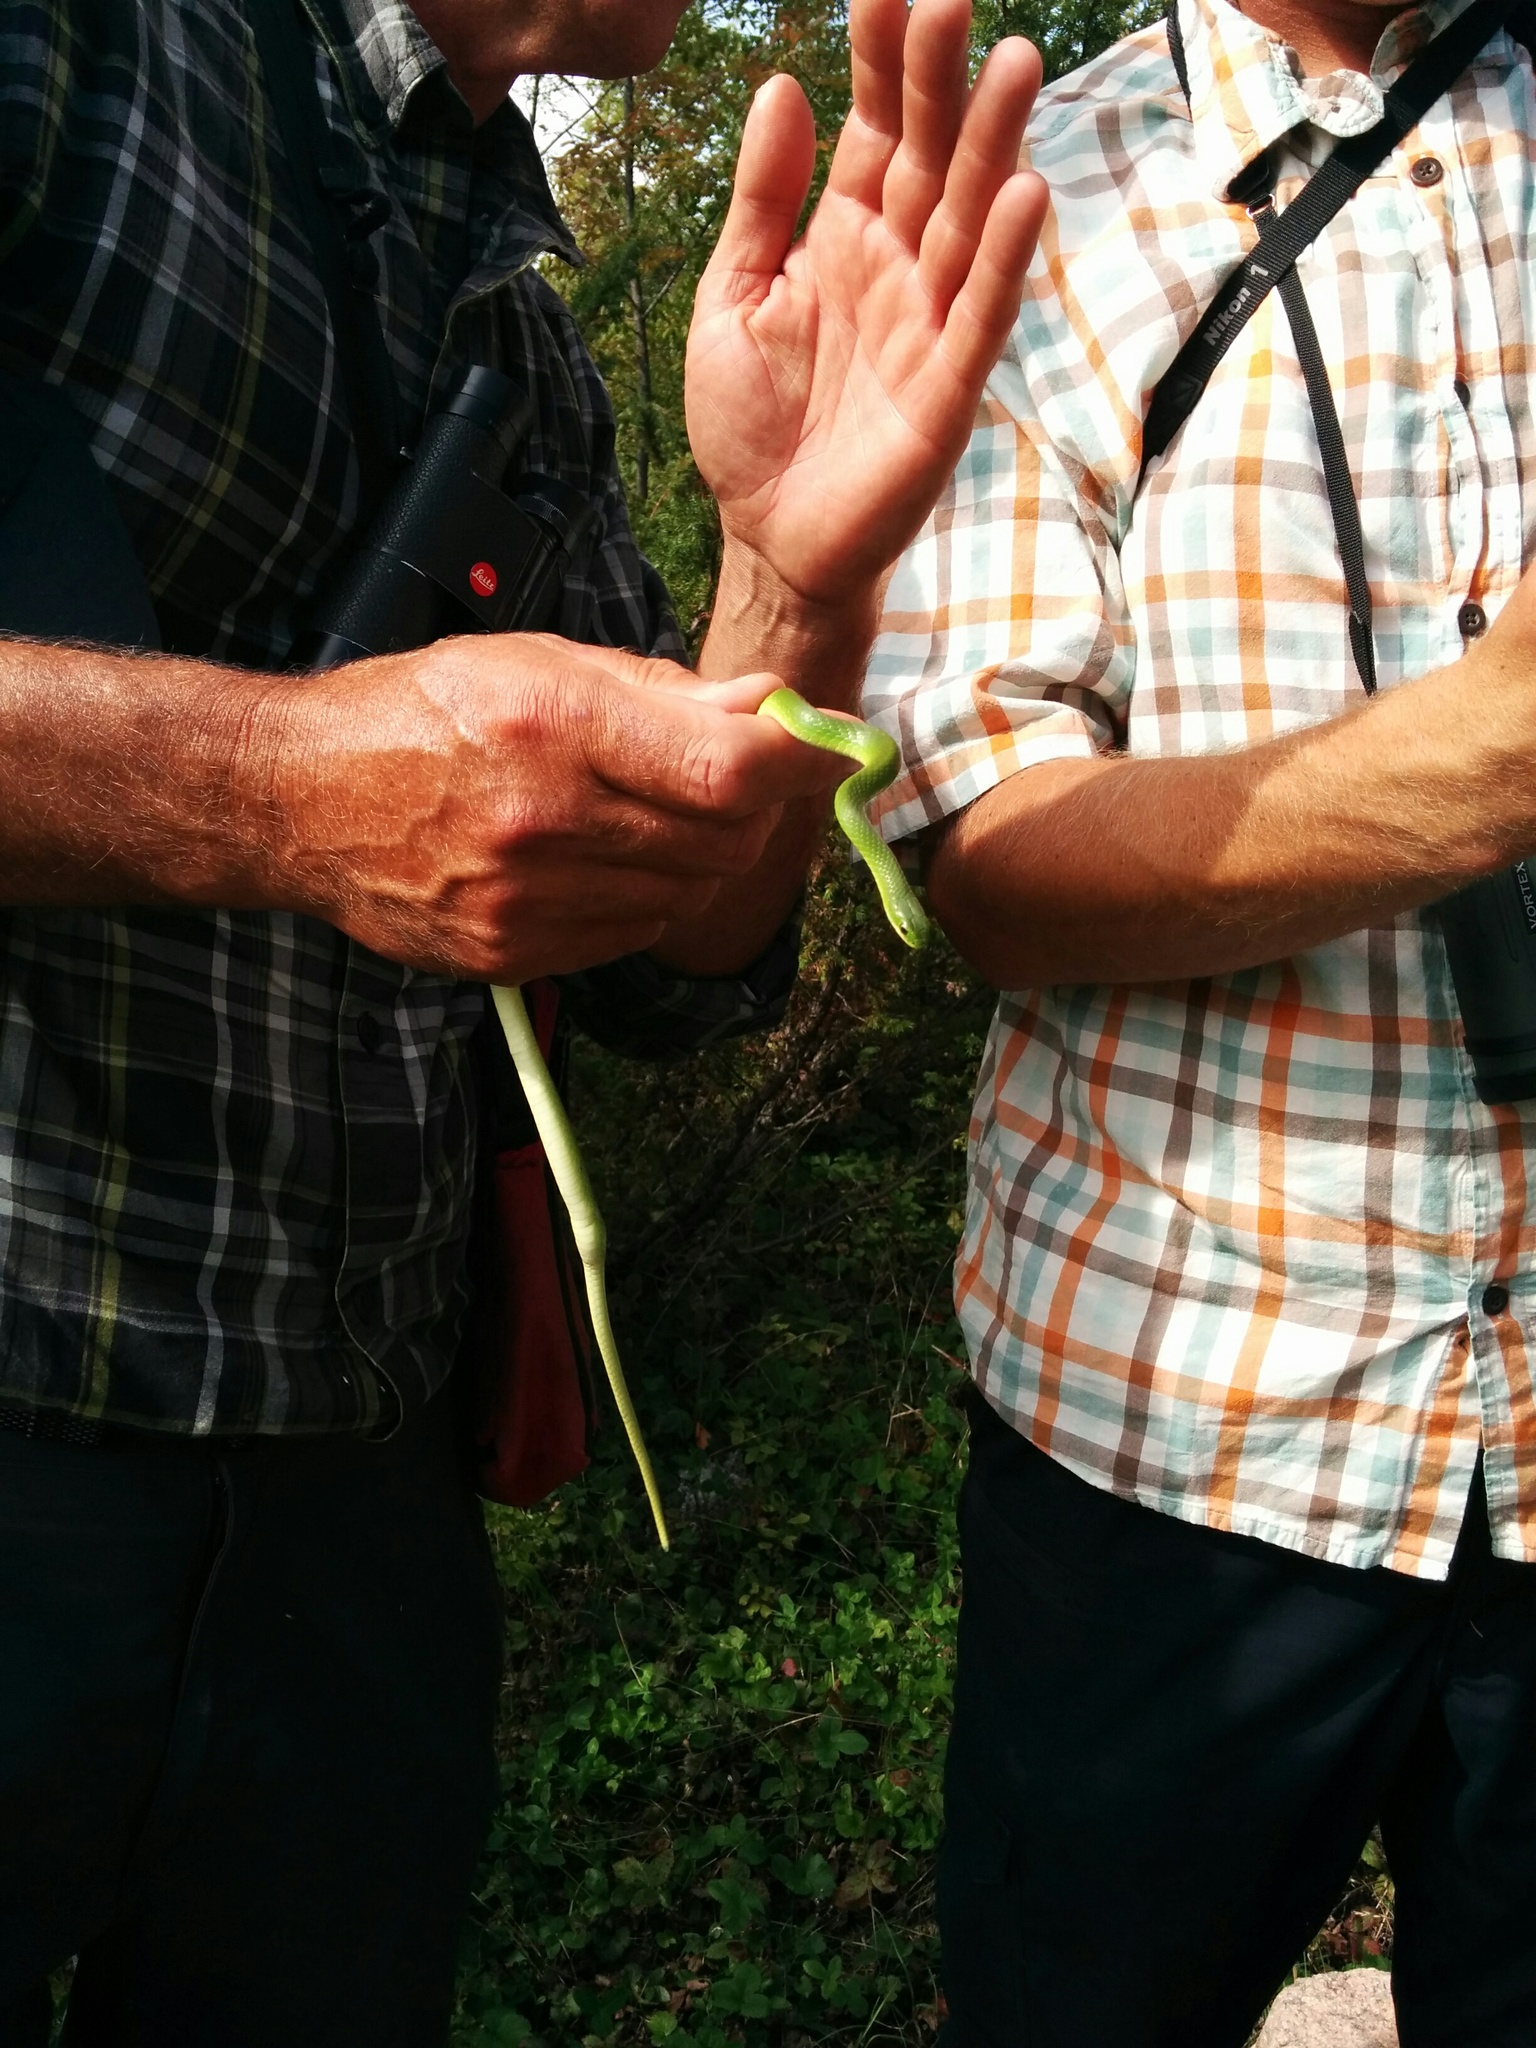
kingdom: Animalia
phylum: Chordata
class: Squamata
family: Colubridae
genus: Opheodrys
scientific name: Opheodrys vernalis
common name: Smooth green snake
